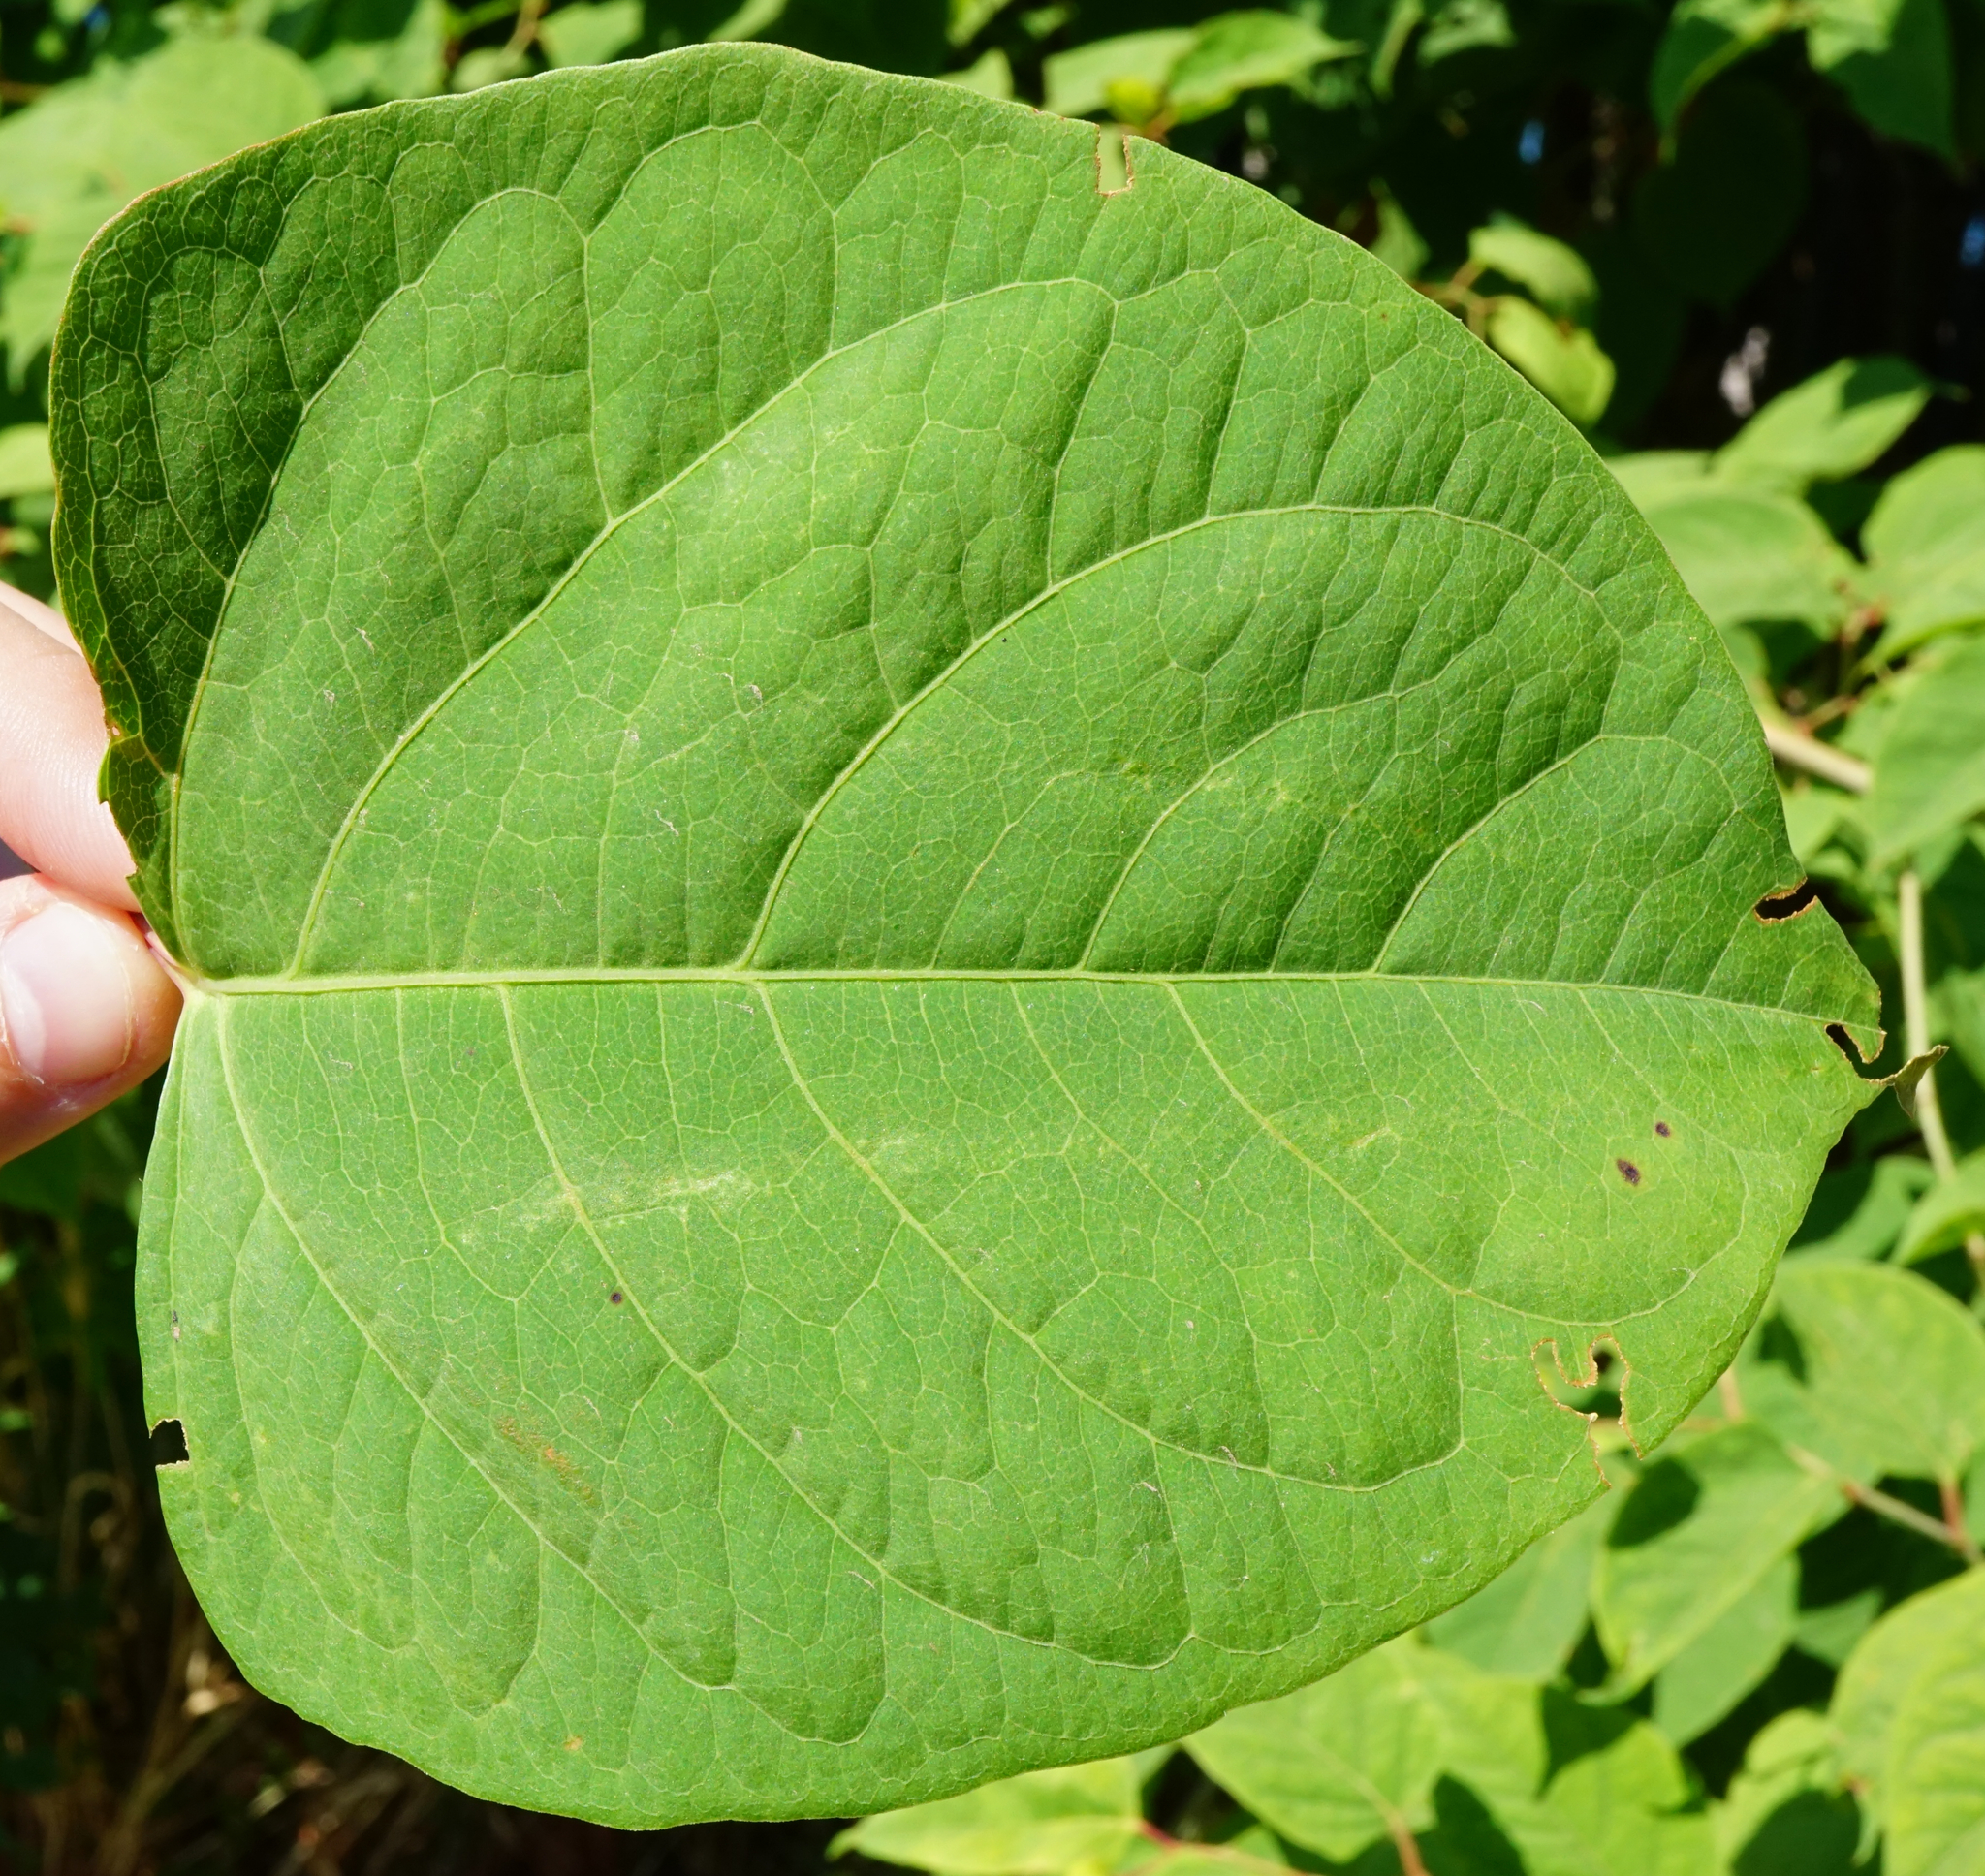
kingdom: Plantae
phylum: Tracheophyta
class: Magnoliopsida
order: Caryophyllales
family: Polygonaceae
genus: Reynoutria
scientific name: Reynoutria japonica
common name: Japanese knotweed
